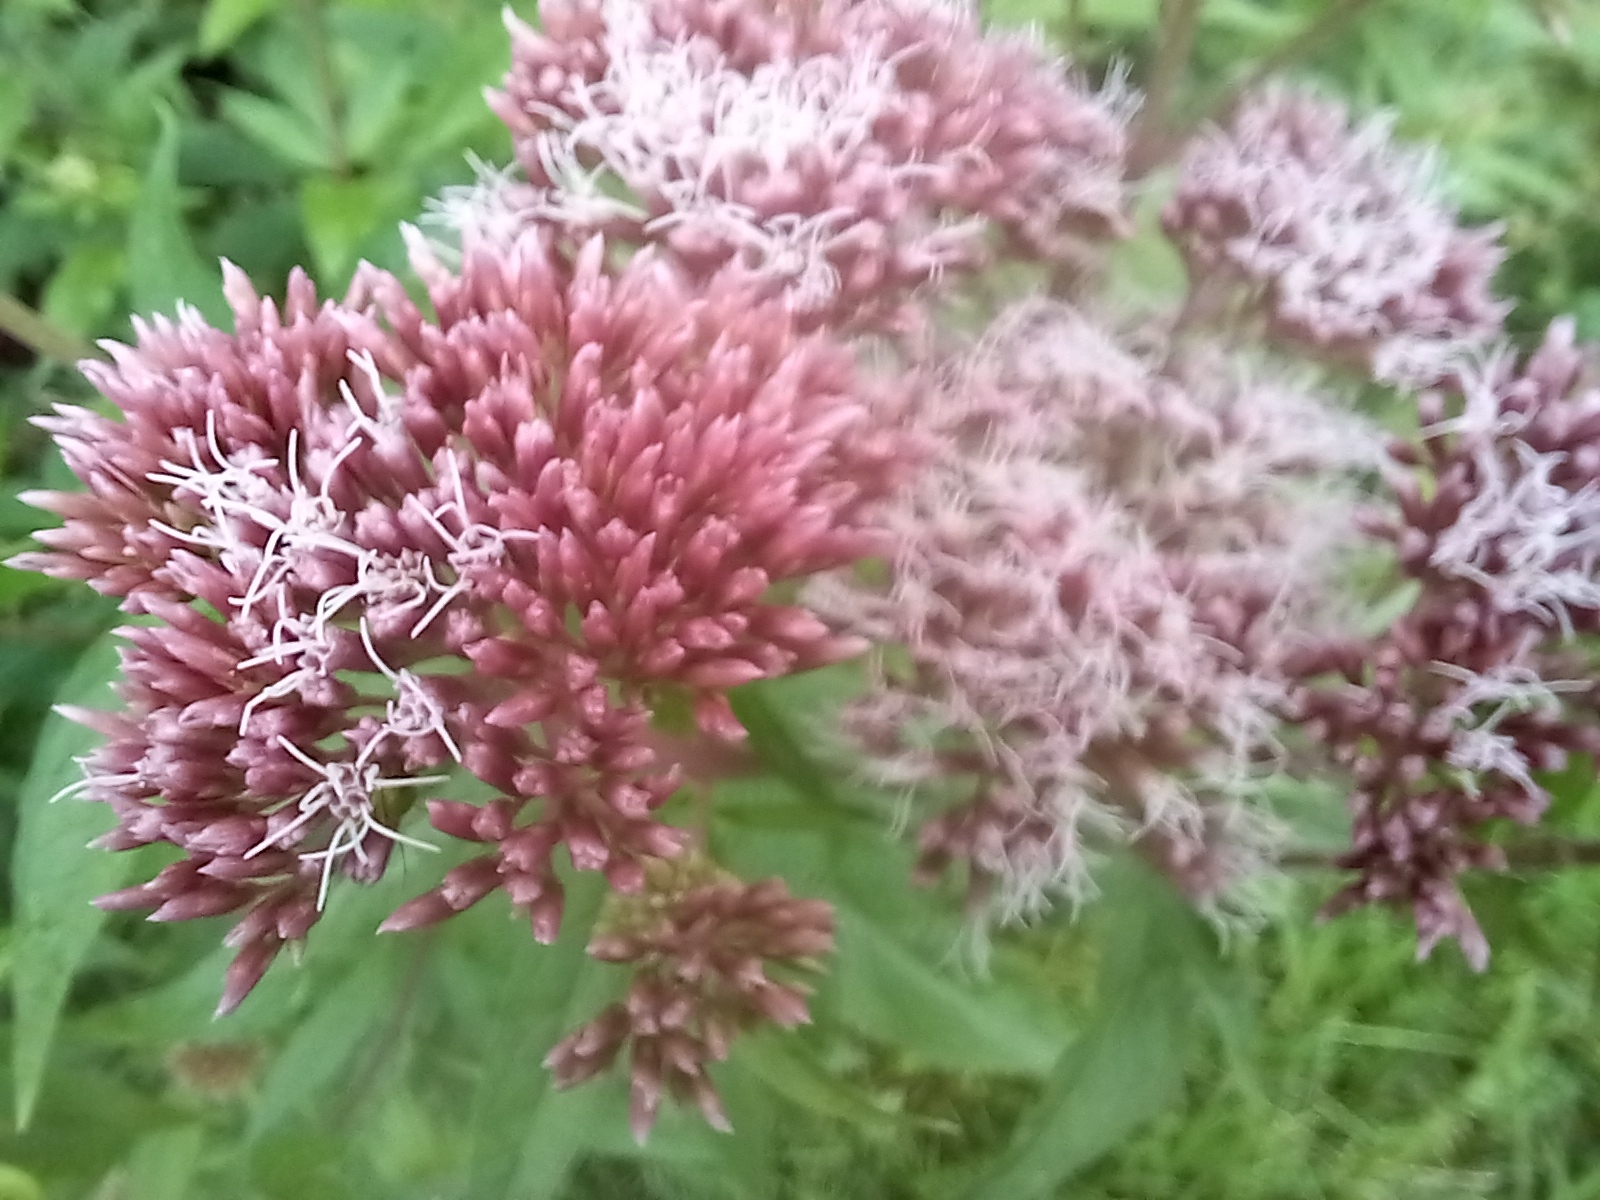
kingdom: Plantae
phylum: Tracheophyta
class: Magnoliopsida
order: Asterales
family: Asteraceae
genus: Eupatorium
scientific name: Eupatorium cannabinum
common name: Hemp-agrimony
